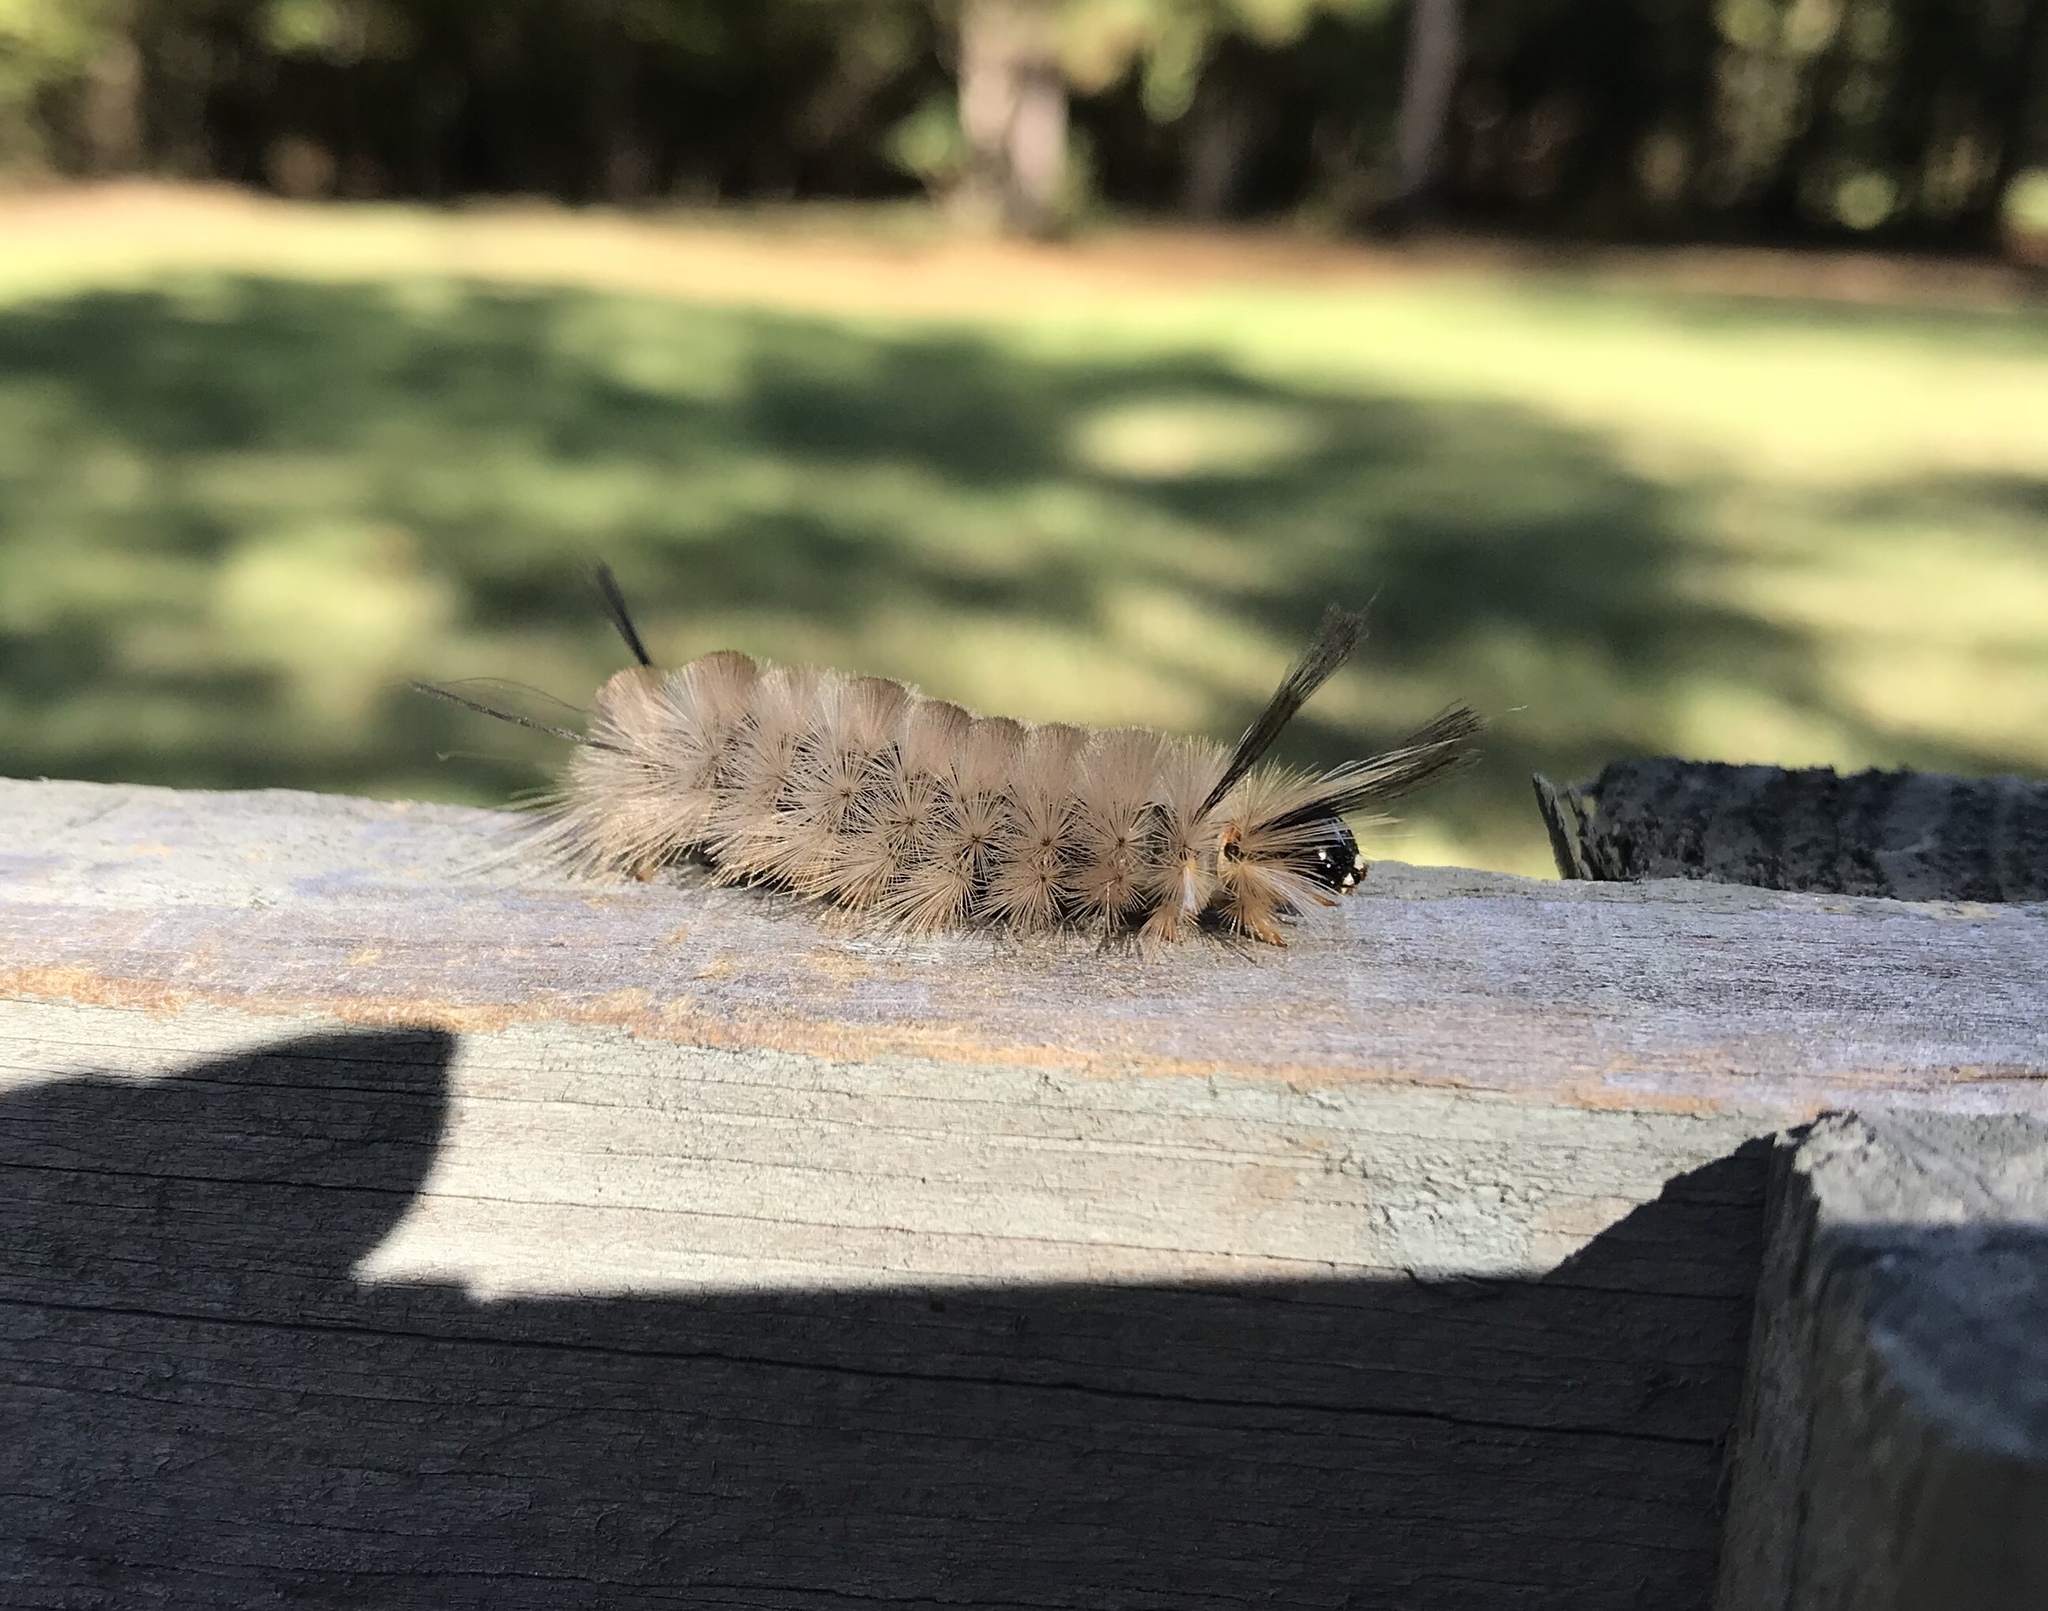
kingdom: Animalia
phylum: Arthropoda
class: Insecta
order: Lepidoptera
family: Erebidae
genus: Halysidota
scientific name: Halysidota tessellaris
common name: Banded tussock moth
